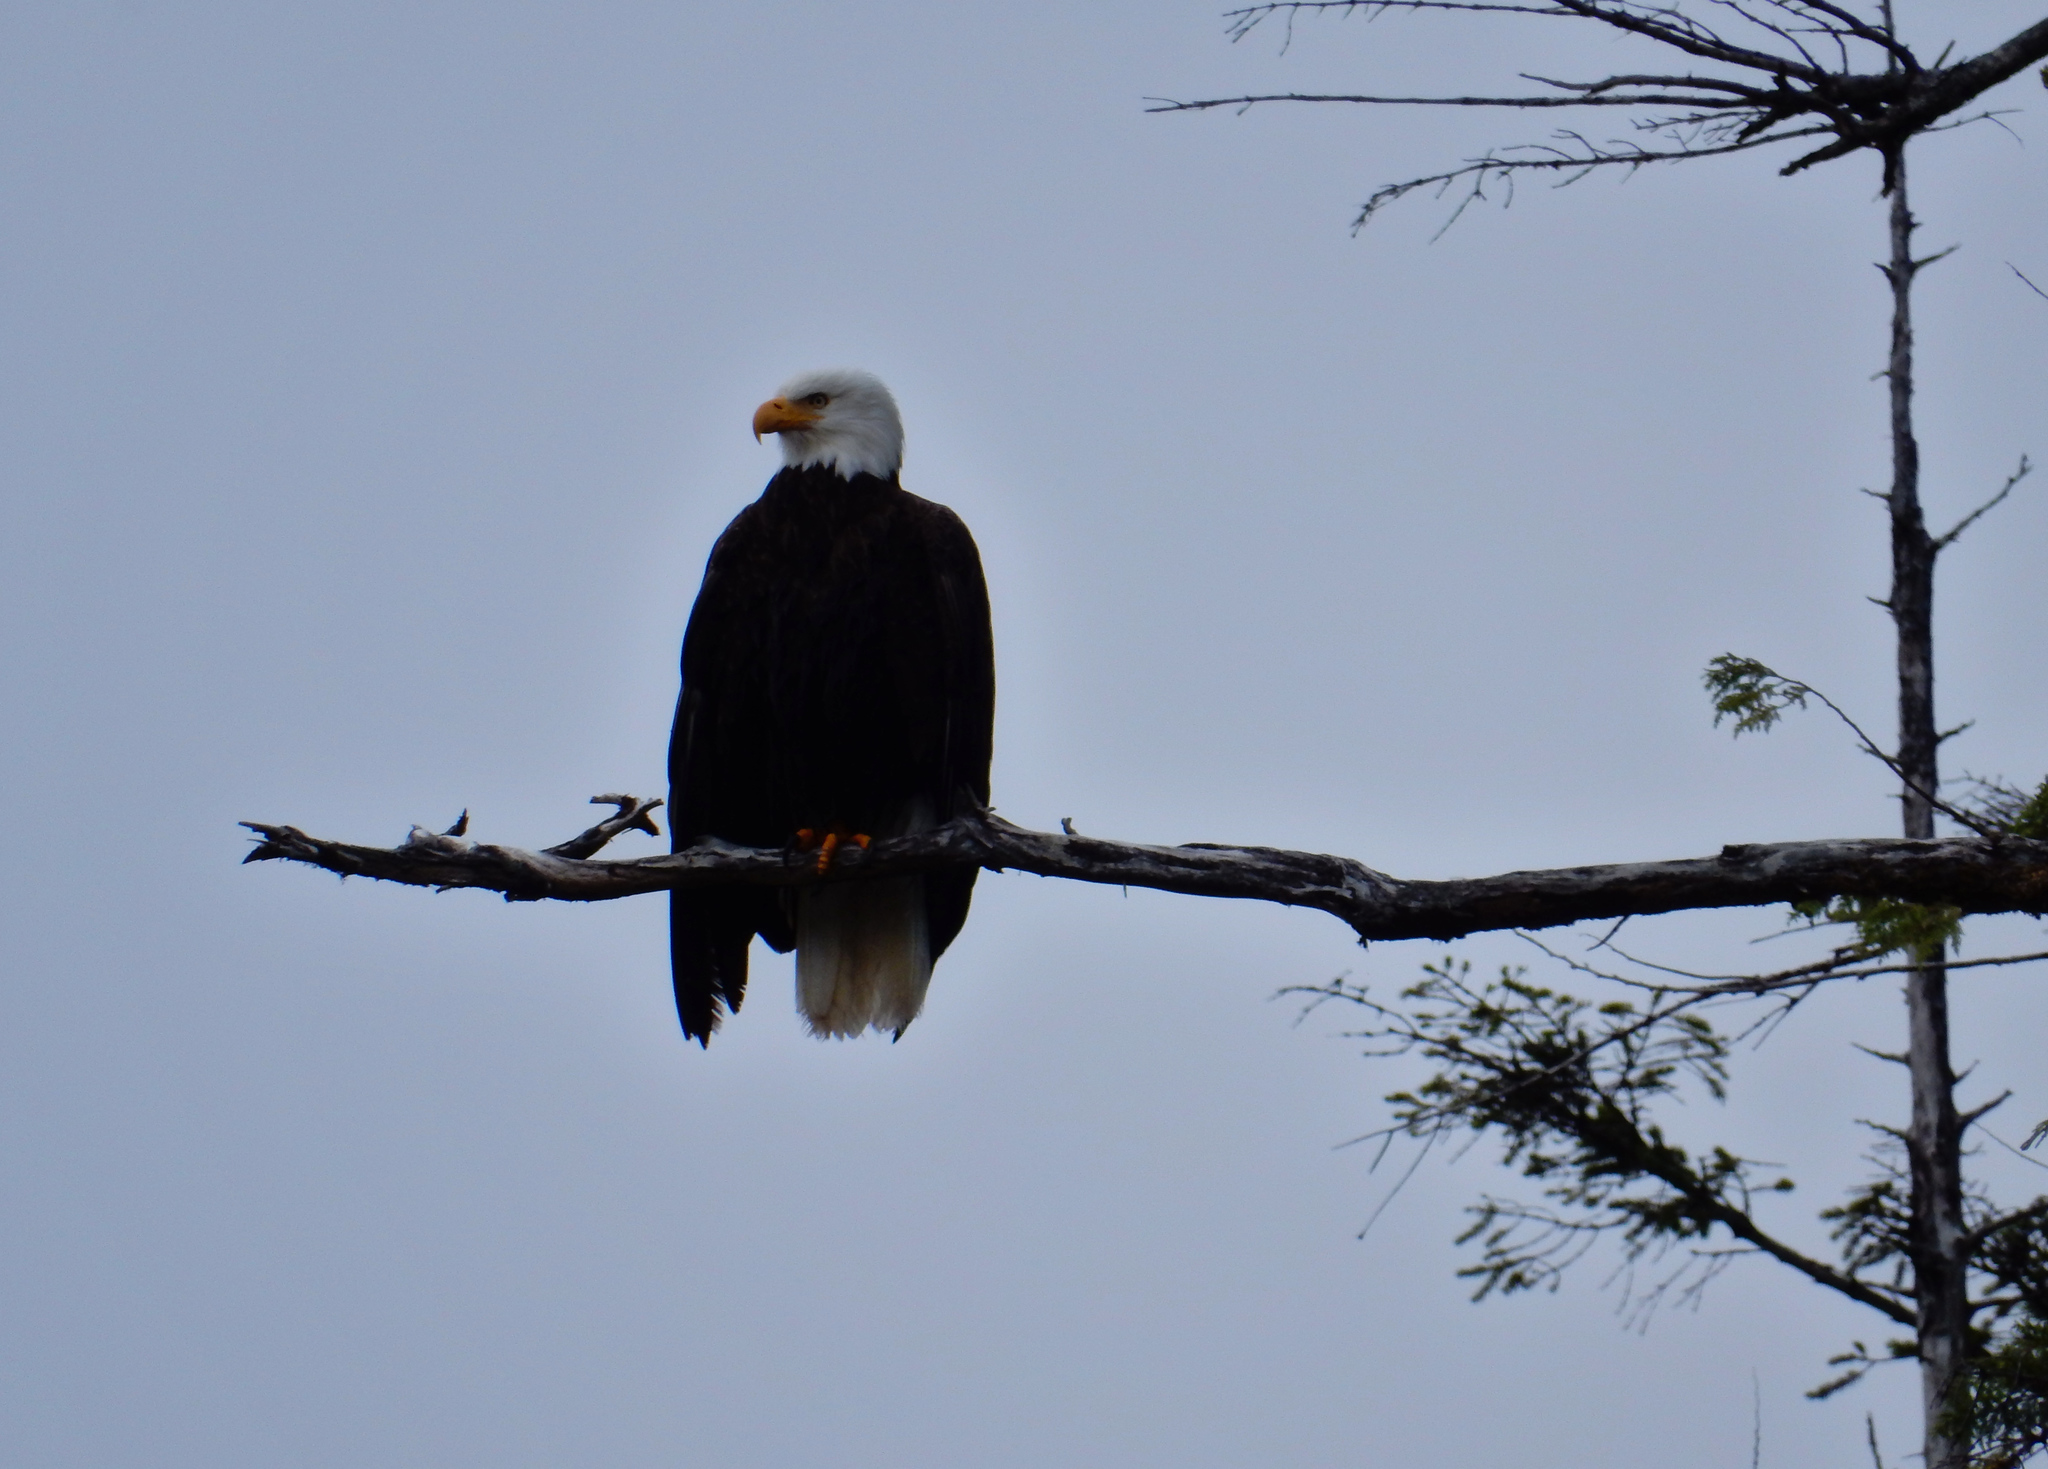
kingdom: Animalia
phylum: Chordata
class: Aves
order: Accipitriformes
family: Accipitridae
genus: Haliaeetus
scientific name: Haliaeetus leucocephalus
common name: Bald eagle
